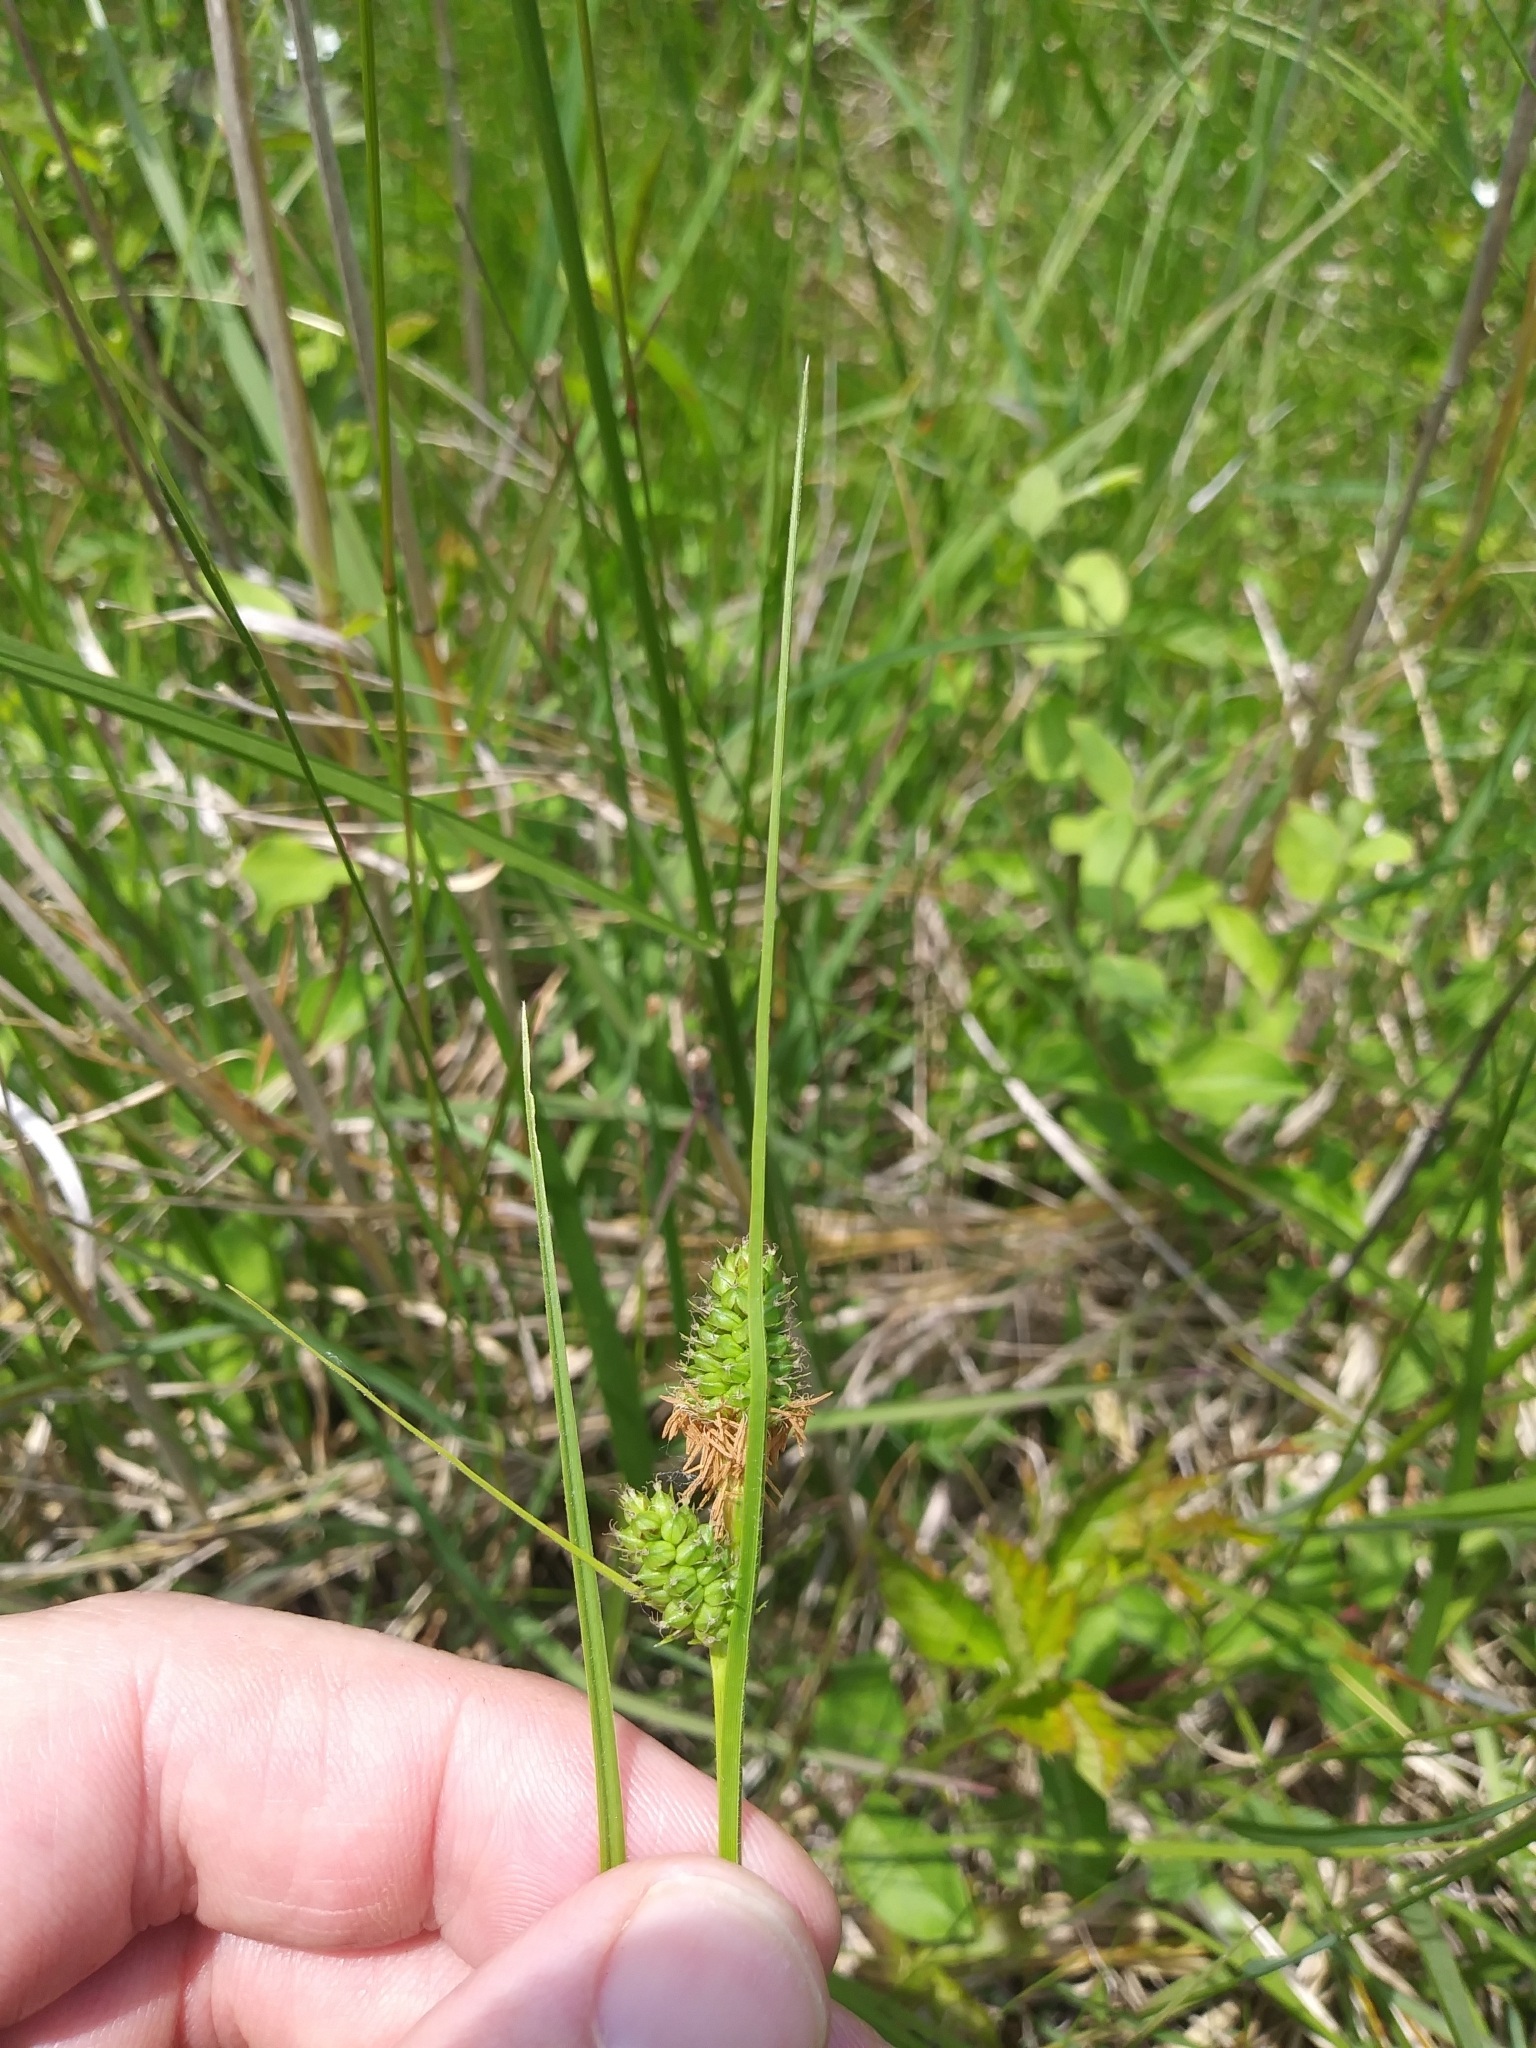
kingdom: Plantae
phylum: Tracheophyta
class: Liliopsida
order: Poales
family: Cyperaceae
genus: Carex
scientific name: Carex bushii
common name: Bush's sedge
